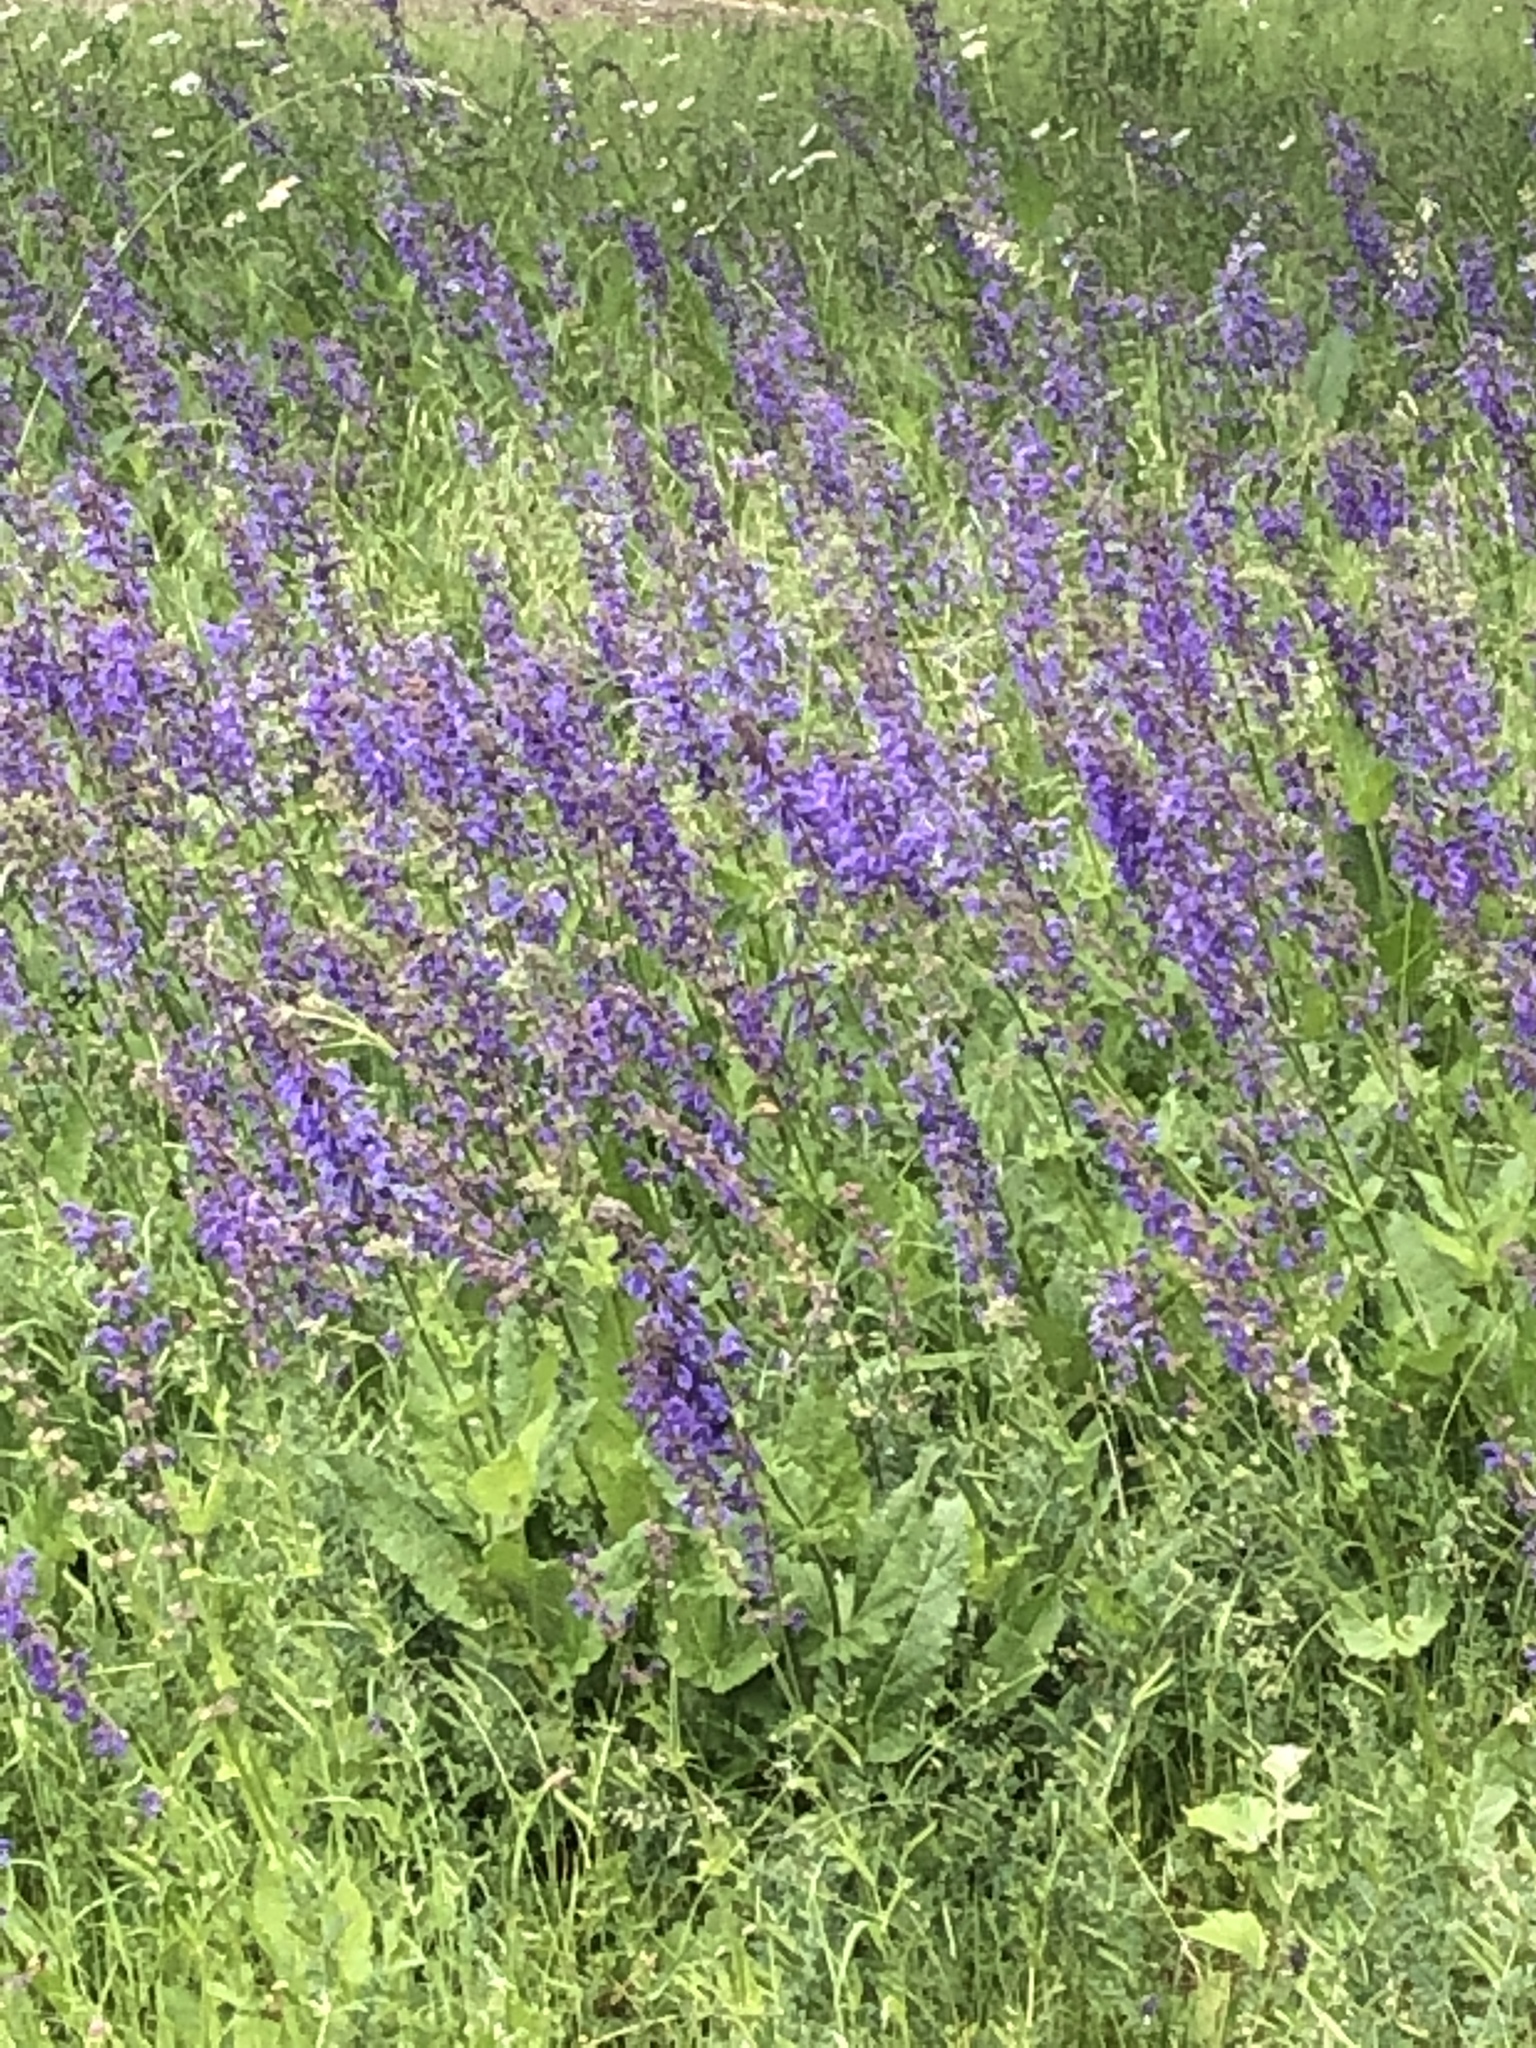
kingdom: Plantae
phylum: Tracheophyta
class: Magnoliopsida
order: Lamiales
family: Lamiaceae
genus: Salvia
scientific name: Salvia pratensis
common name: Meadow sage
